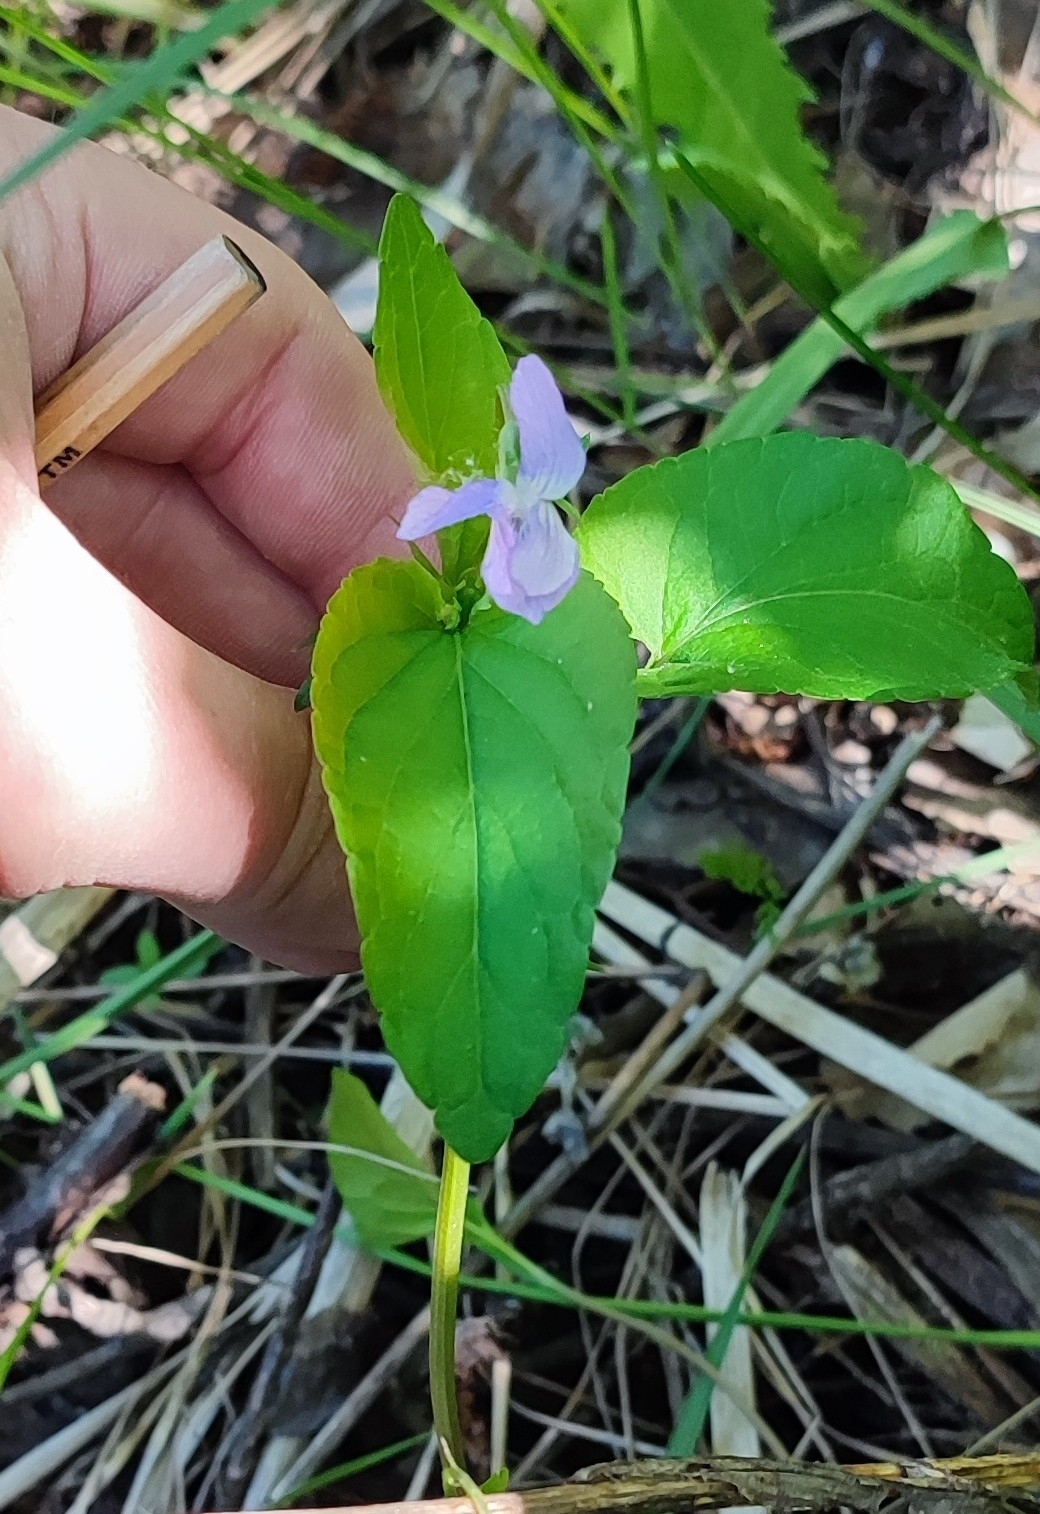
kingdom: Plantae
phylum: Tracheophyta
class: Magnoliopsida
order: Malpighiales
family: Violaceae
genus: Viola
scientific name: Viola
